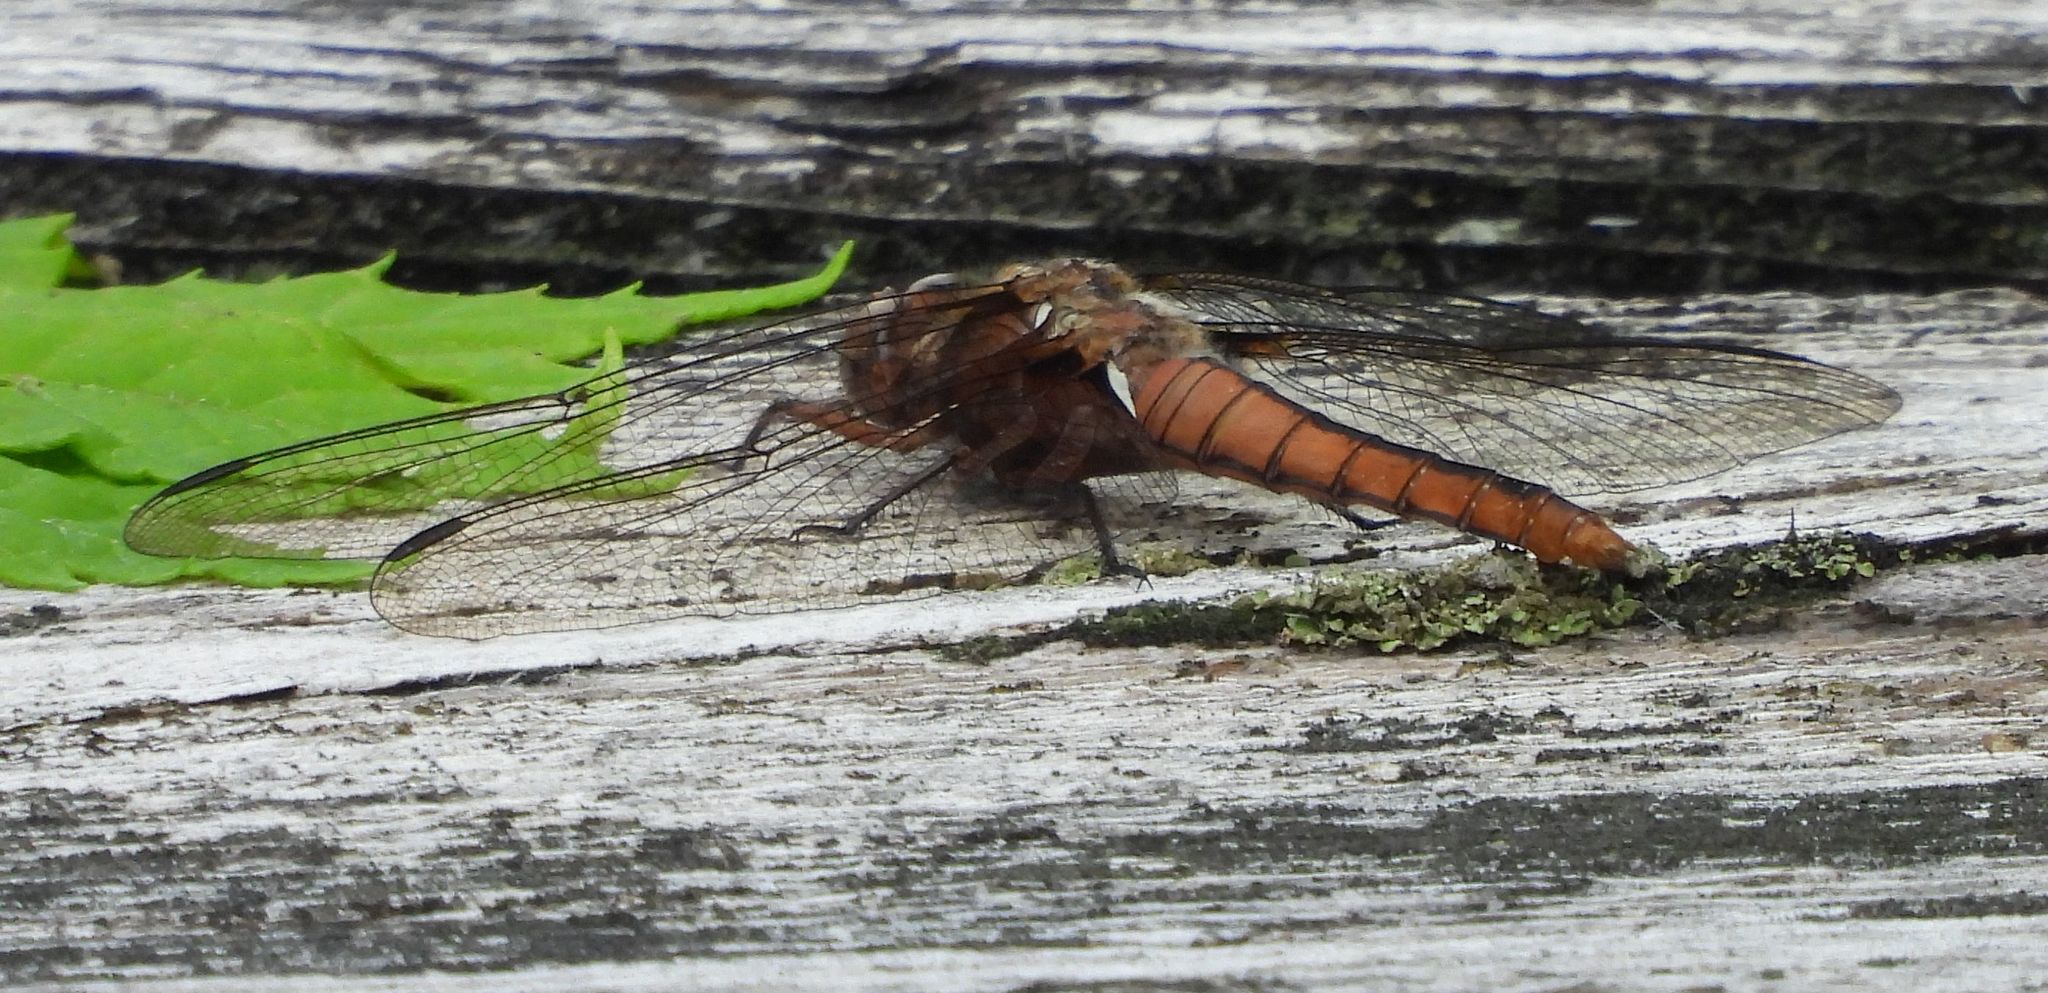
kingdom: Animalia
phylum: Arthropoda
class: Insecta
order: Odonata
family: Libellulidae
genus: Ladona
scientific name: Ladona julia
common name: Chalk-fronted corporal
